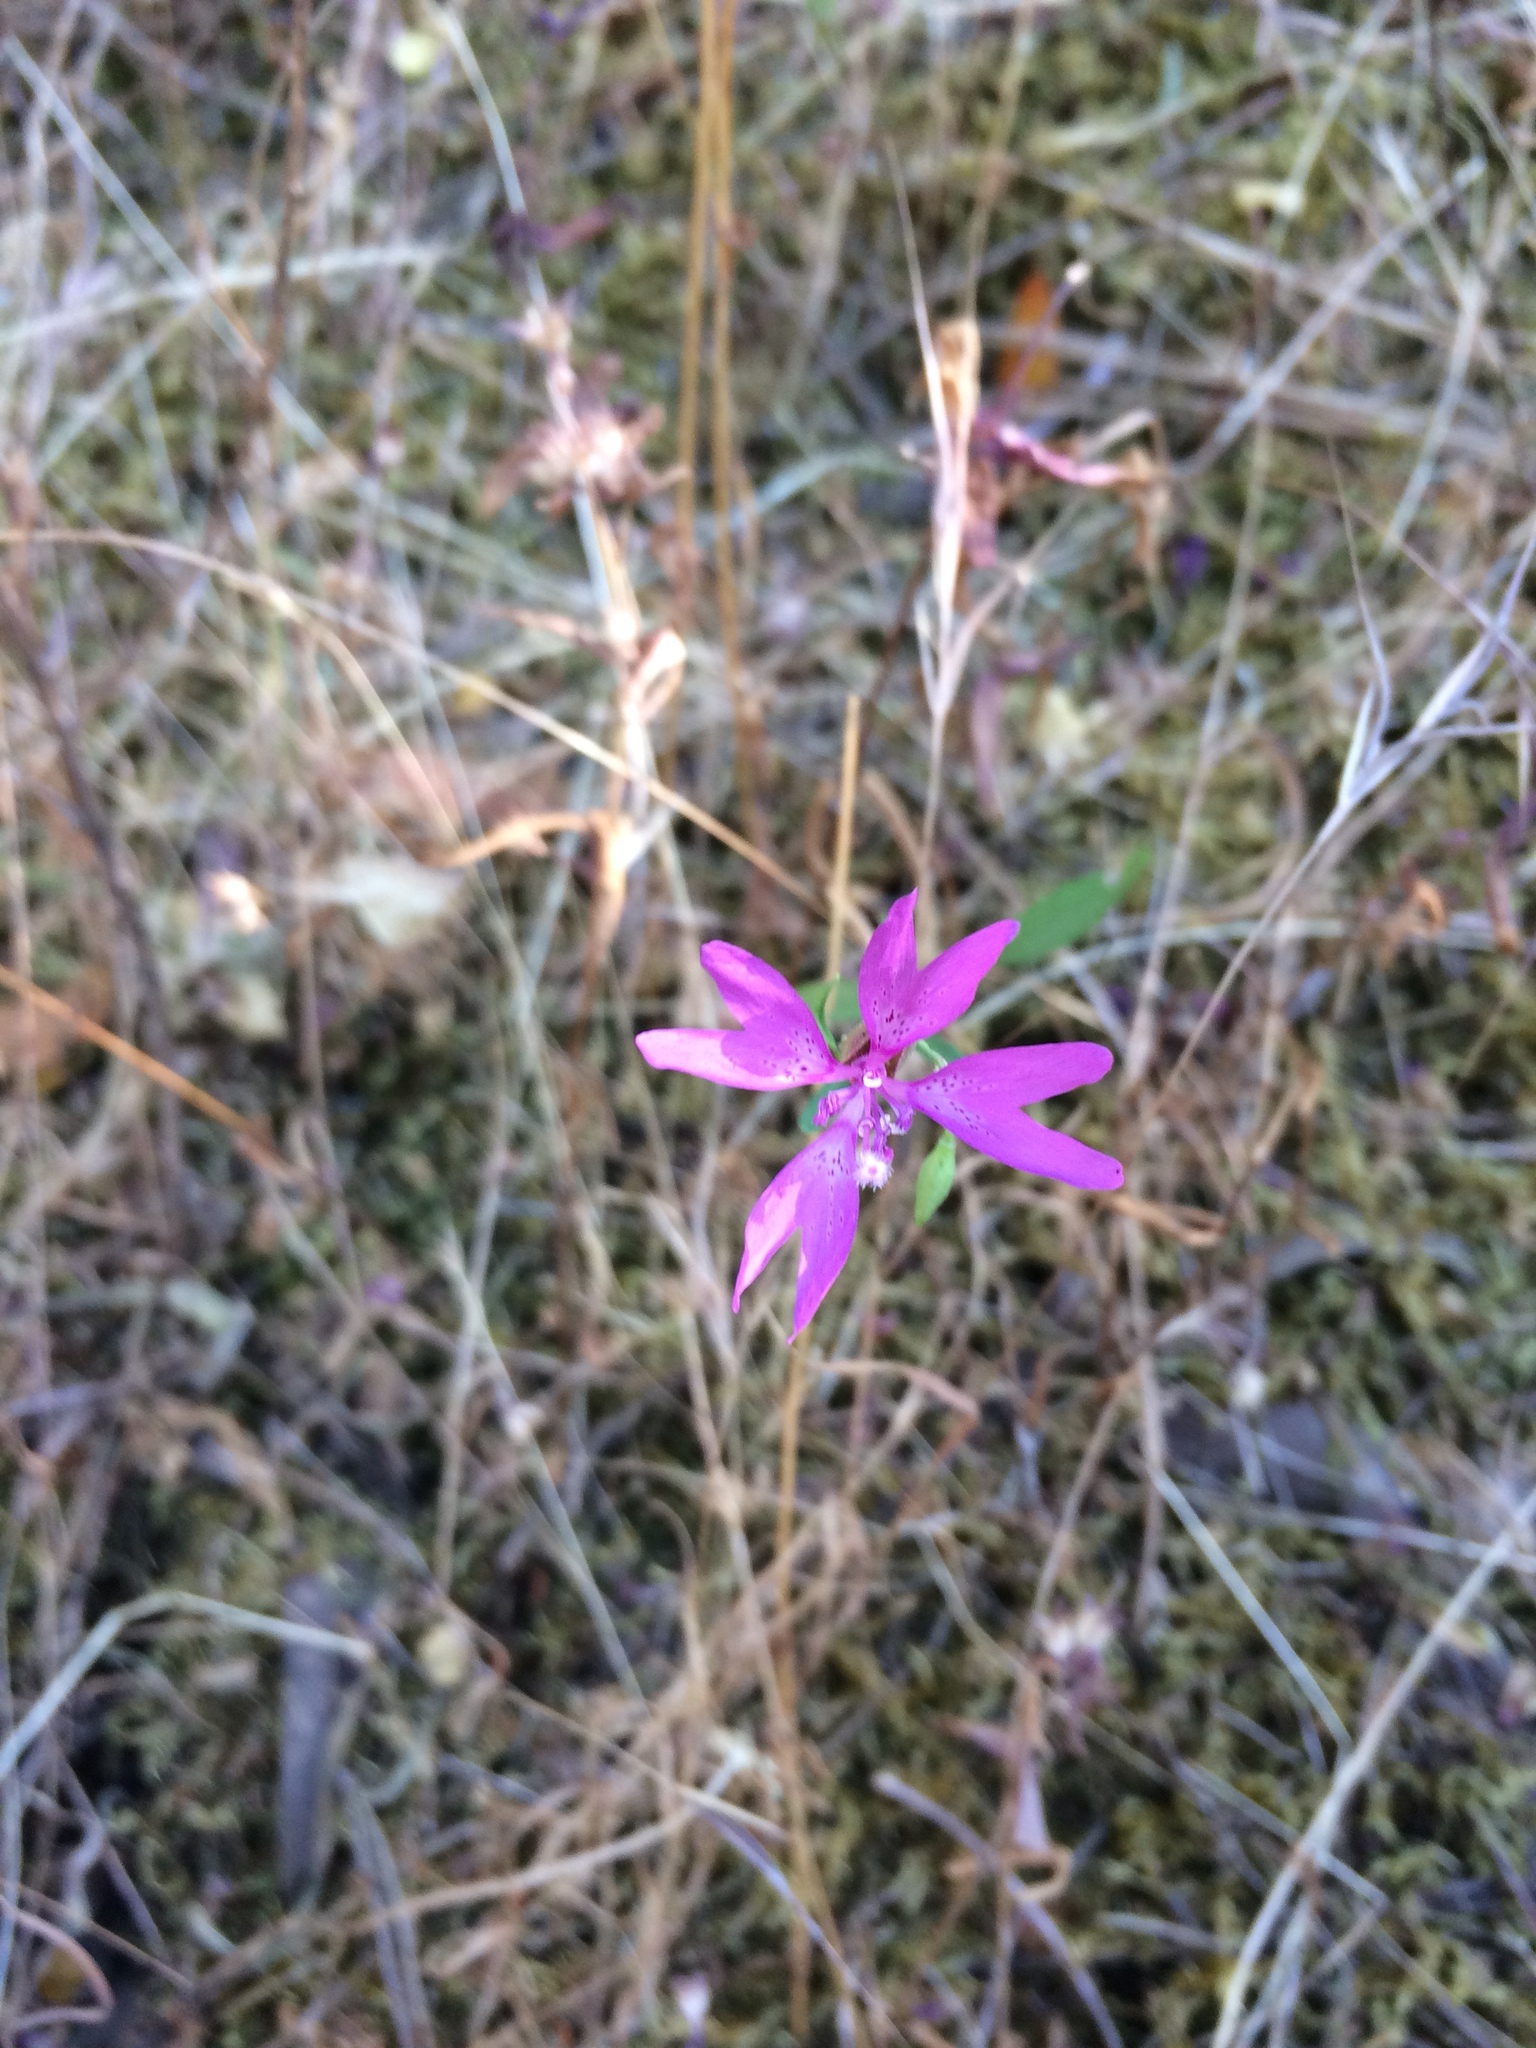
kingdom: Plantae
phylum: Tracheophyta
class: Magnoliopsida
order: Myrtales
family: Onagraceae
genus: Clarkia
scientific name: Clarkia biloba
